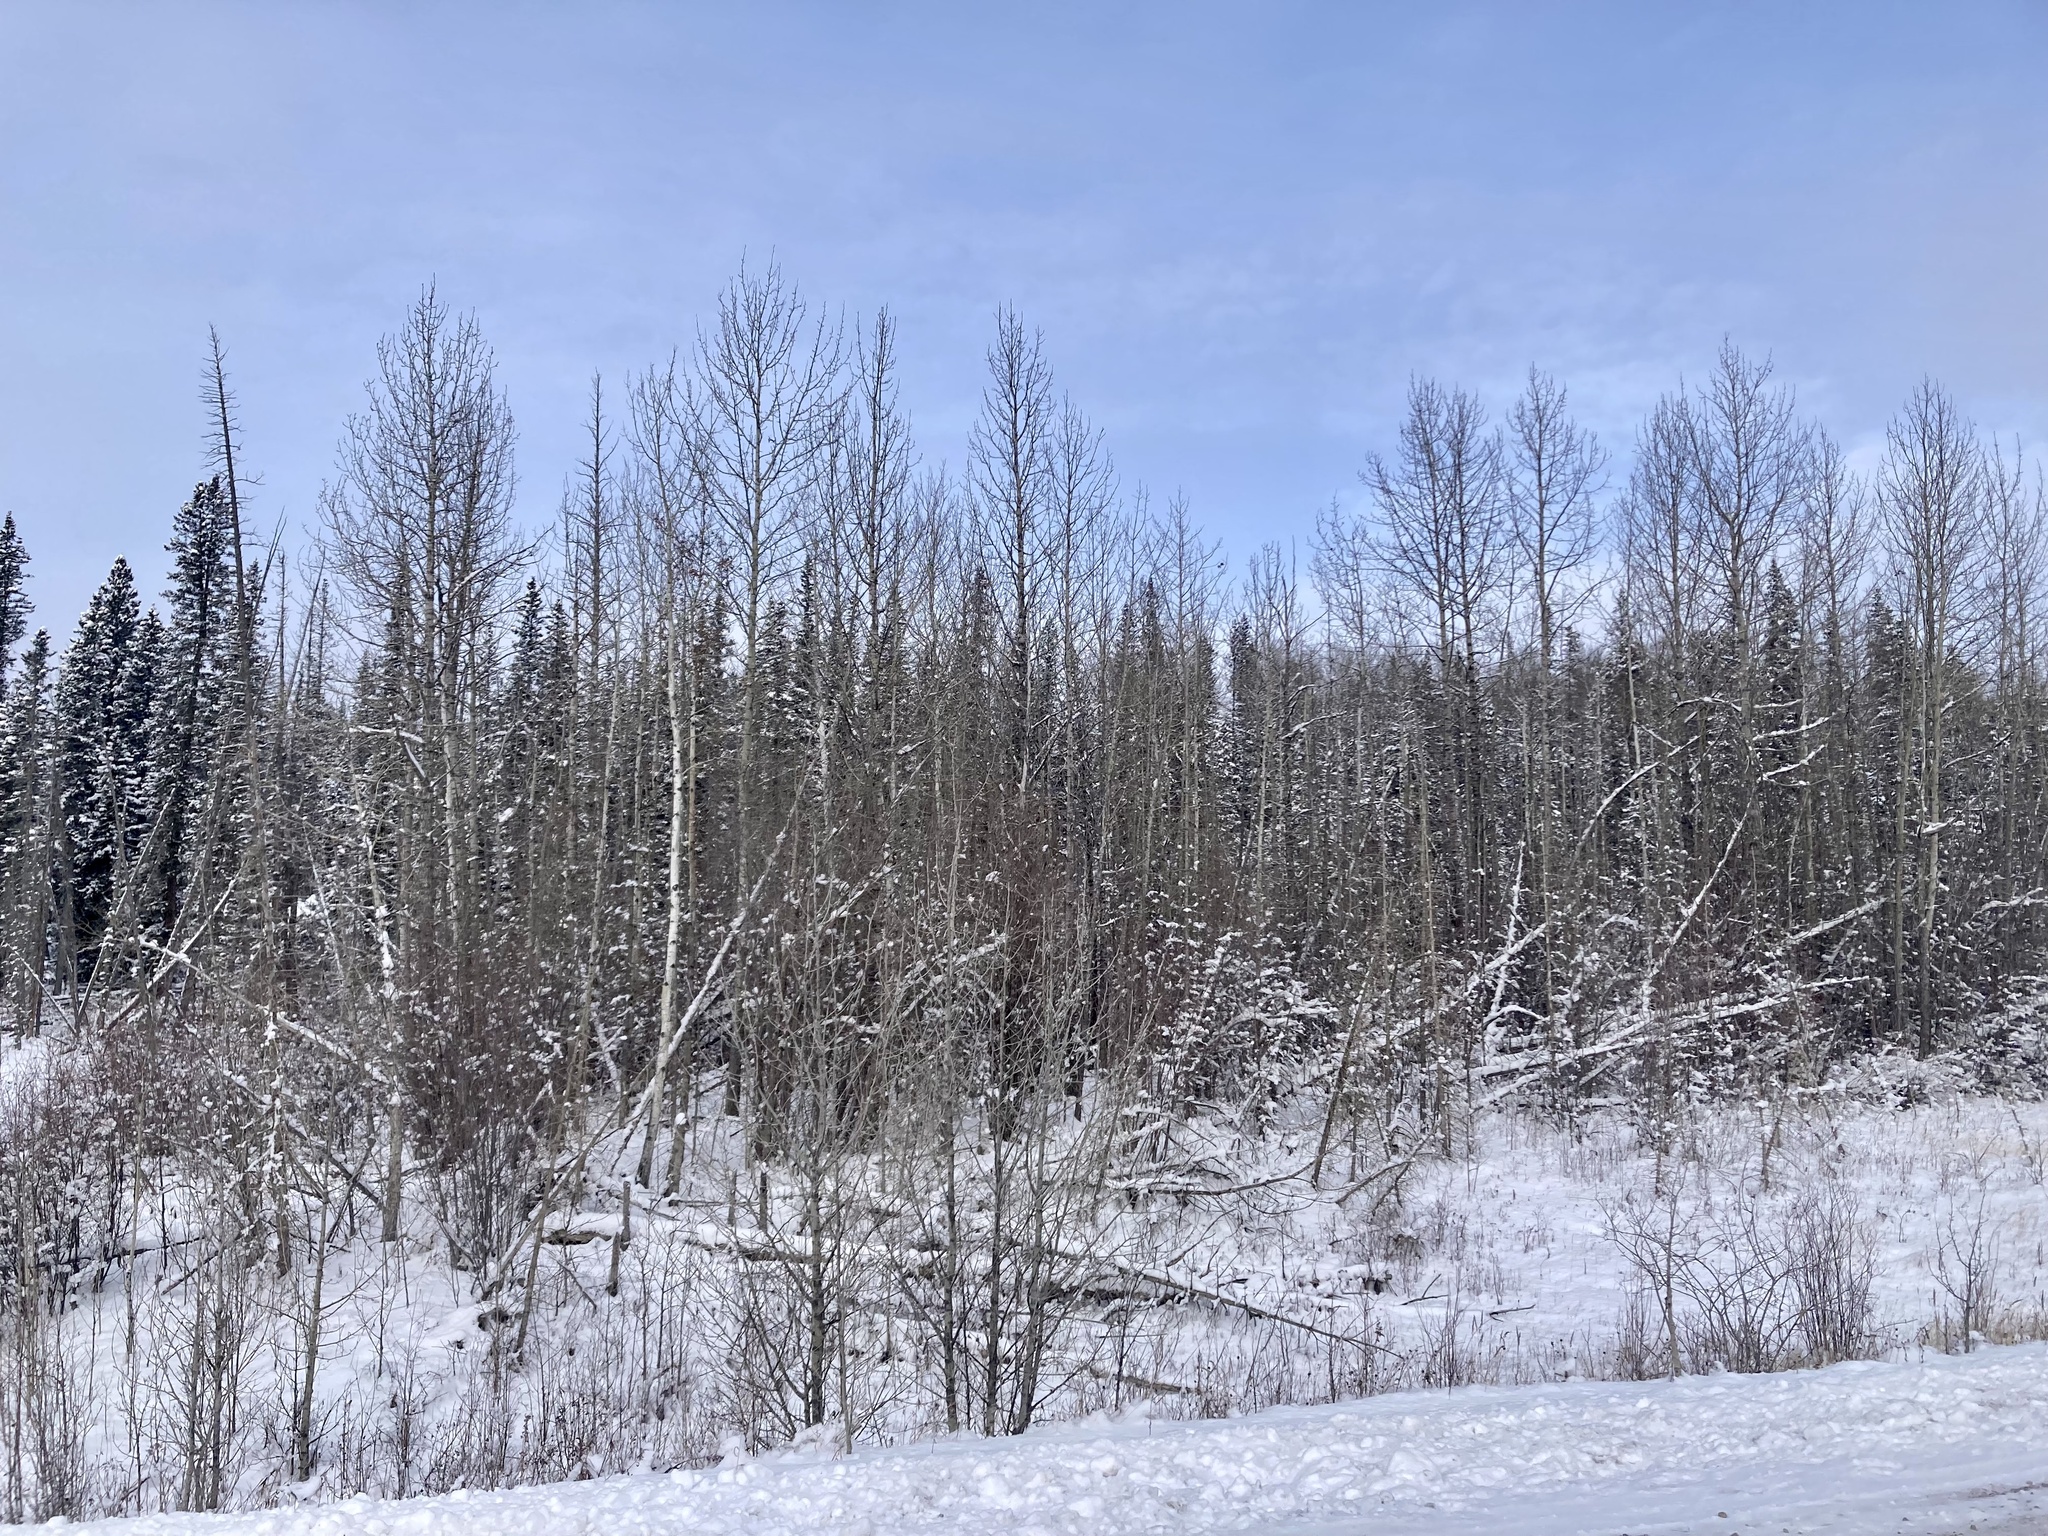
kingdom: Plantae
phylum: Tracheophyta
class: Magnoliopsida
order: Malpighiales
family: Salicaceae
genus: Populus
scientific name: Populus tremuloides
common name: Quaking aspen
